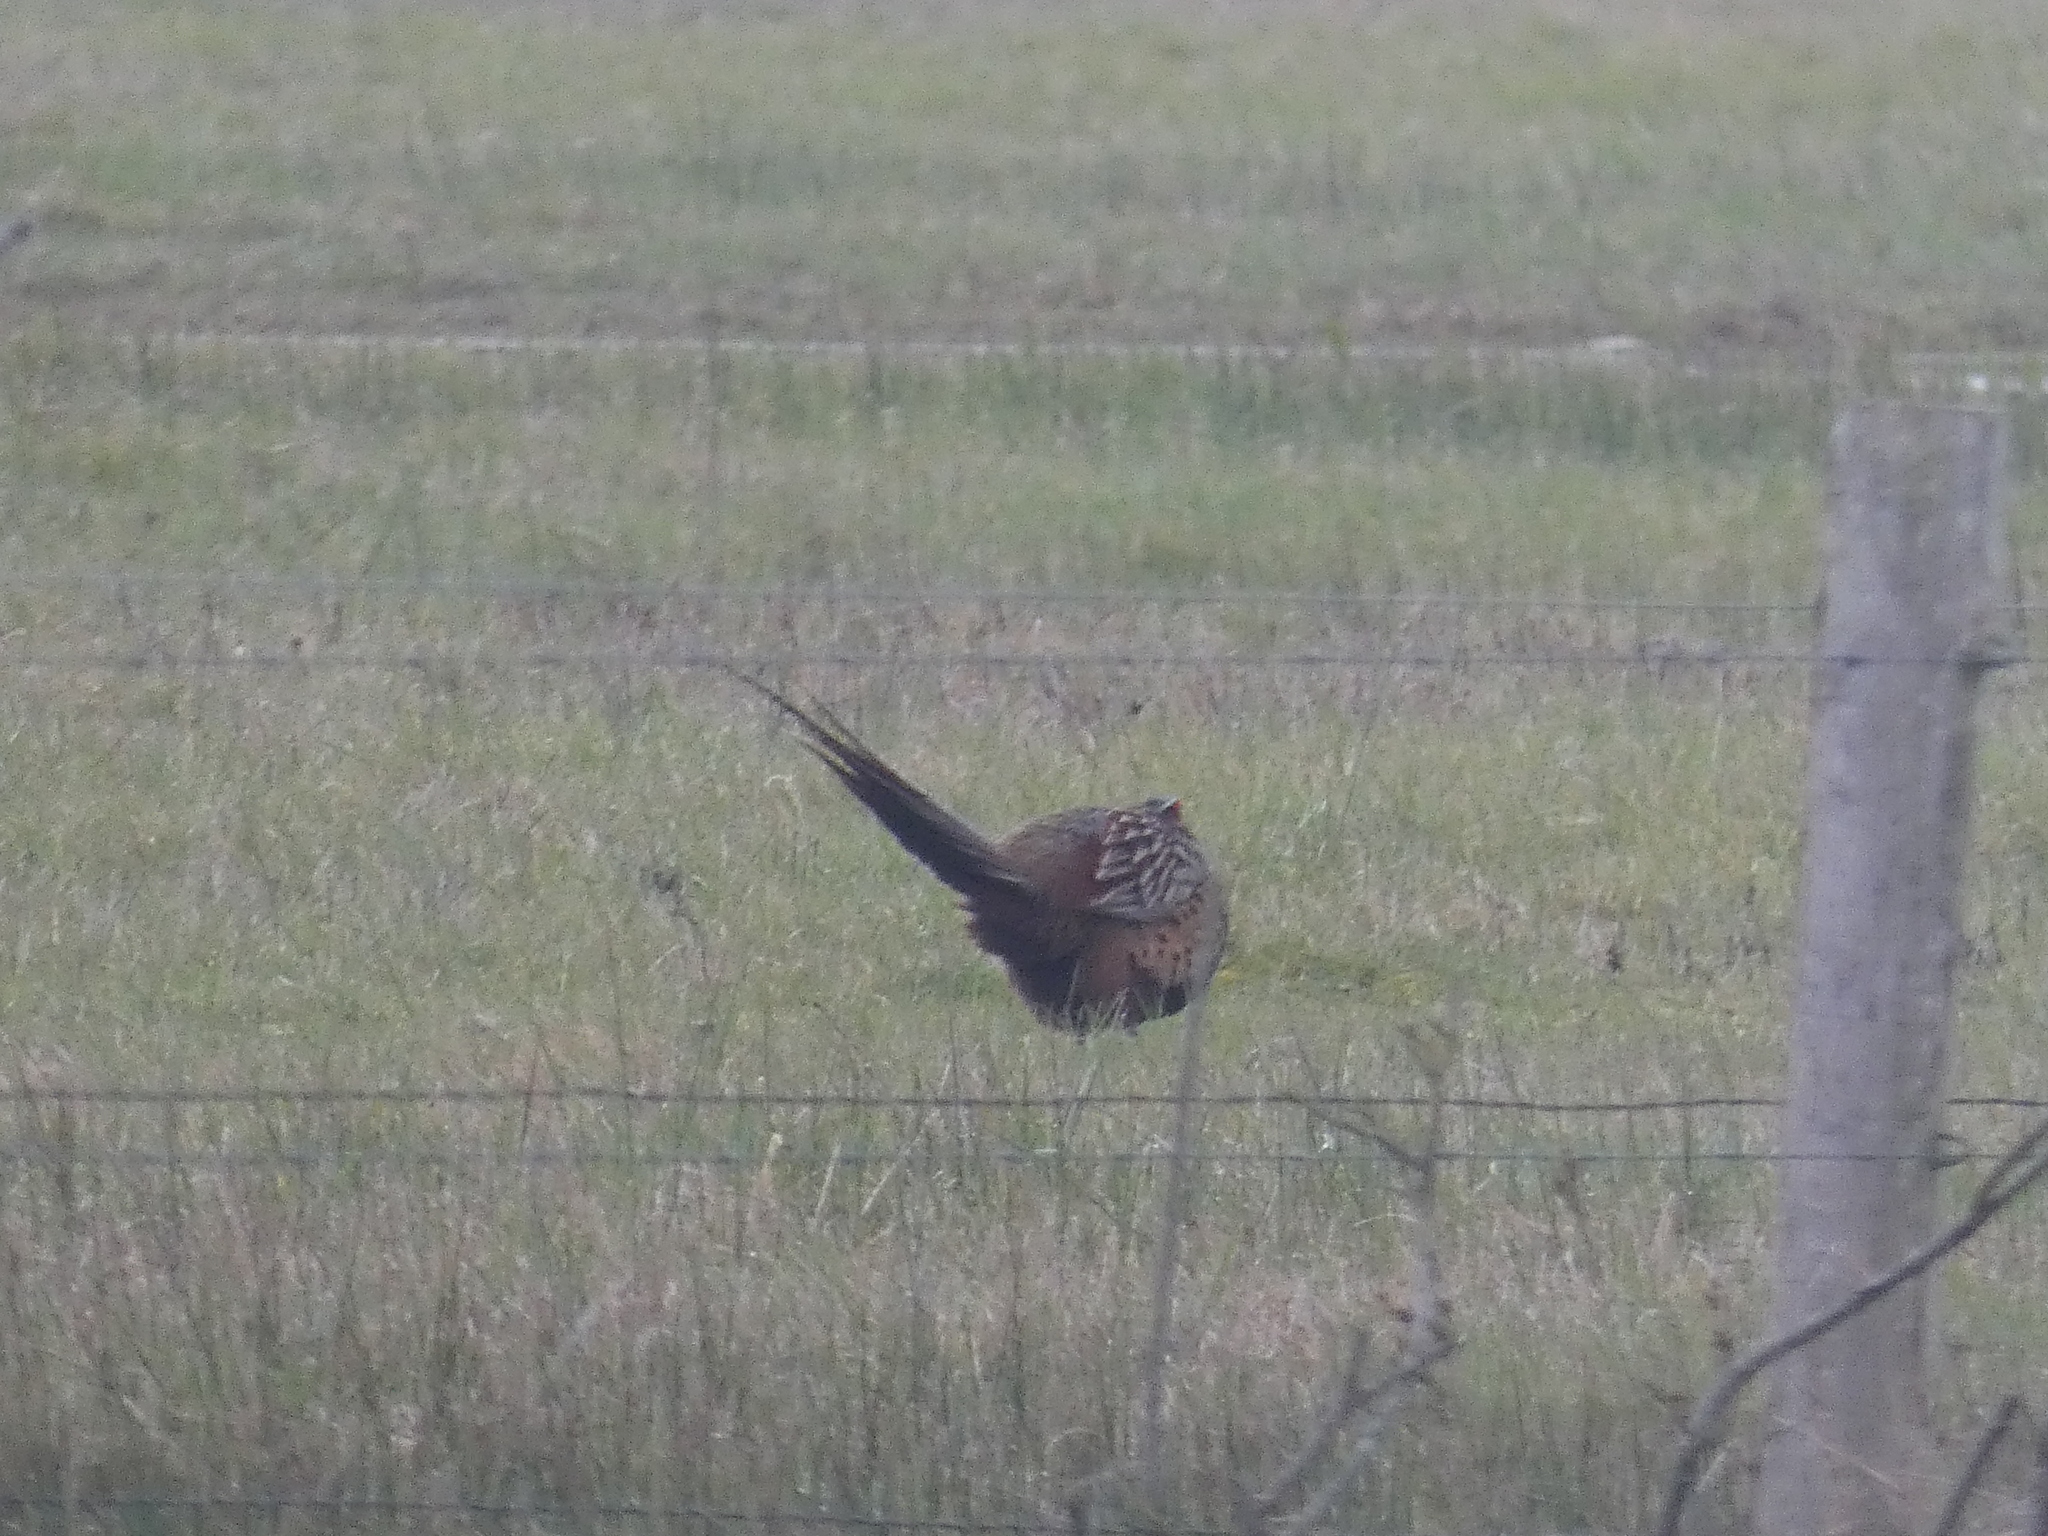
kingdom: Animalia
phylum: Chordata
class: Aves
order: Galliformes
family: Phasianidae
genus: Phasianus
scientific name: Phasianus colchicus
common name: Common pheasant
